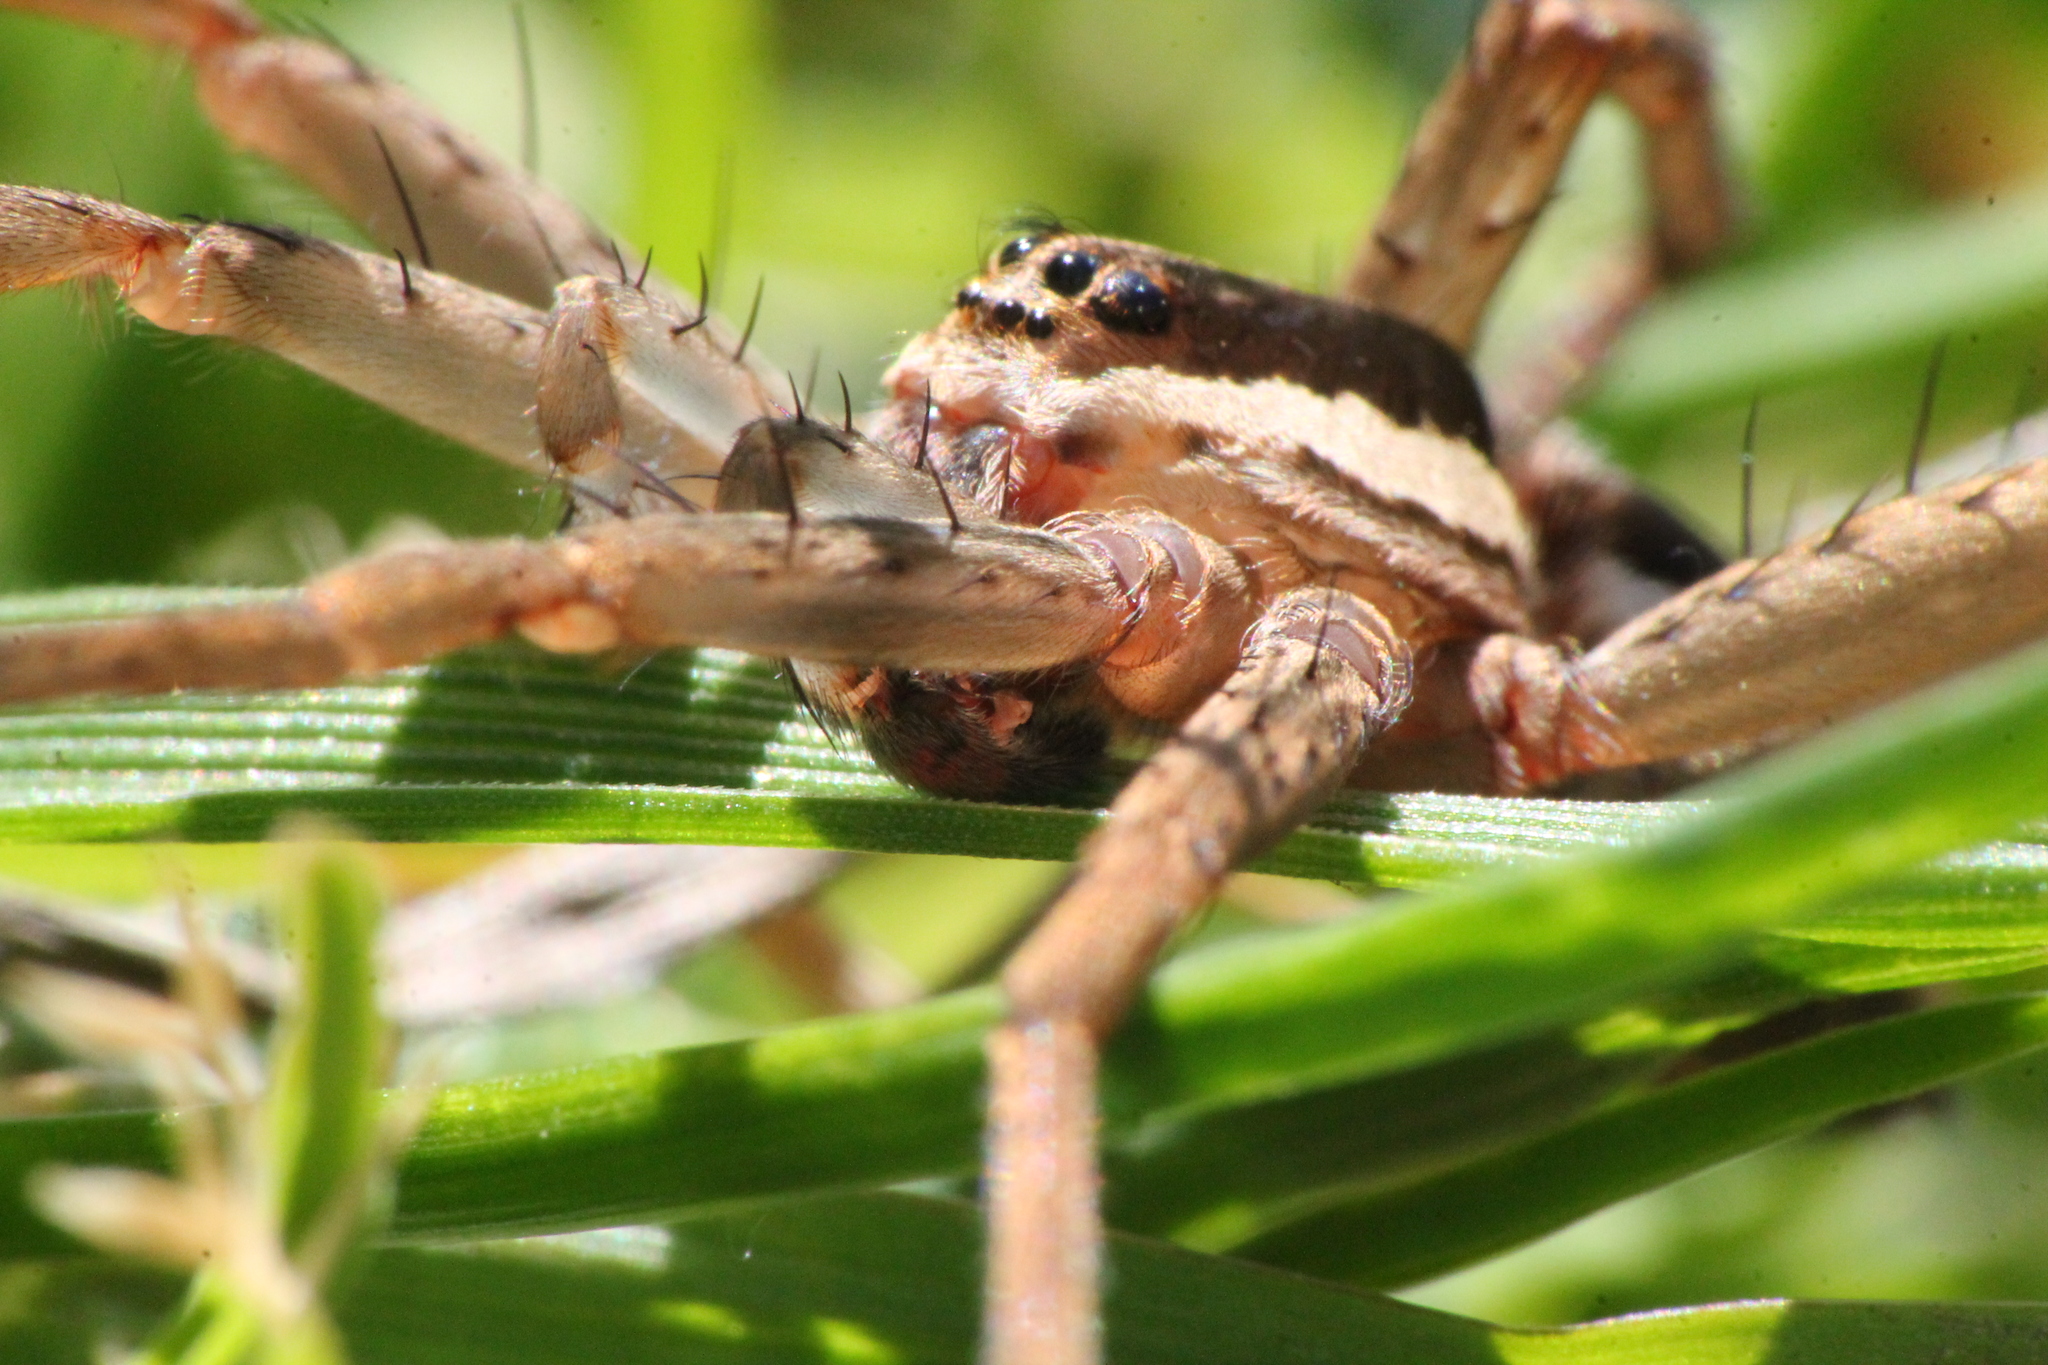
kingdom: Animalia
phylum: Arthropoda
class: Arachnida
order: Araneae
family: Pisauridae
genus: Dolomedes
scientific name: Dolomedes minor
